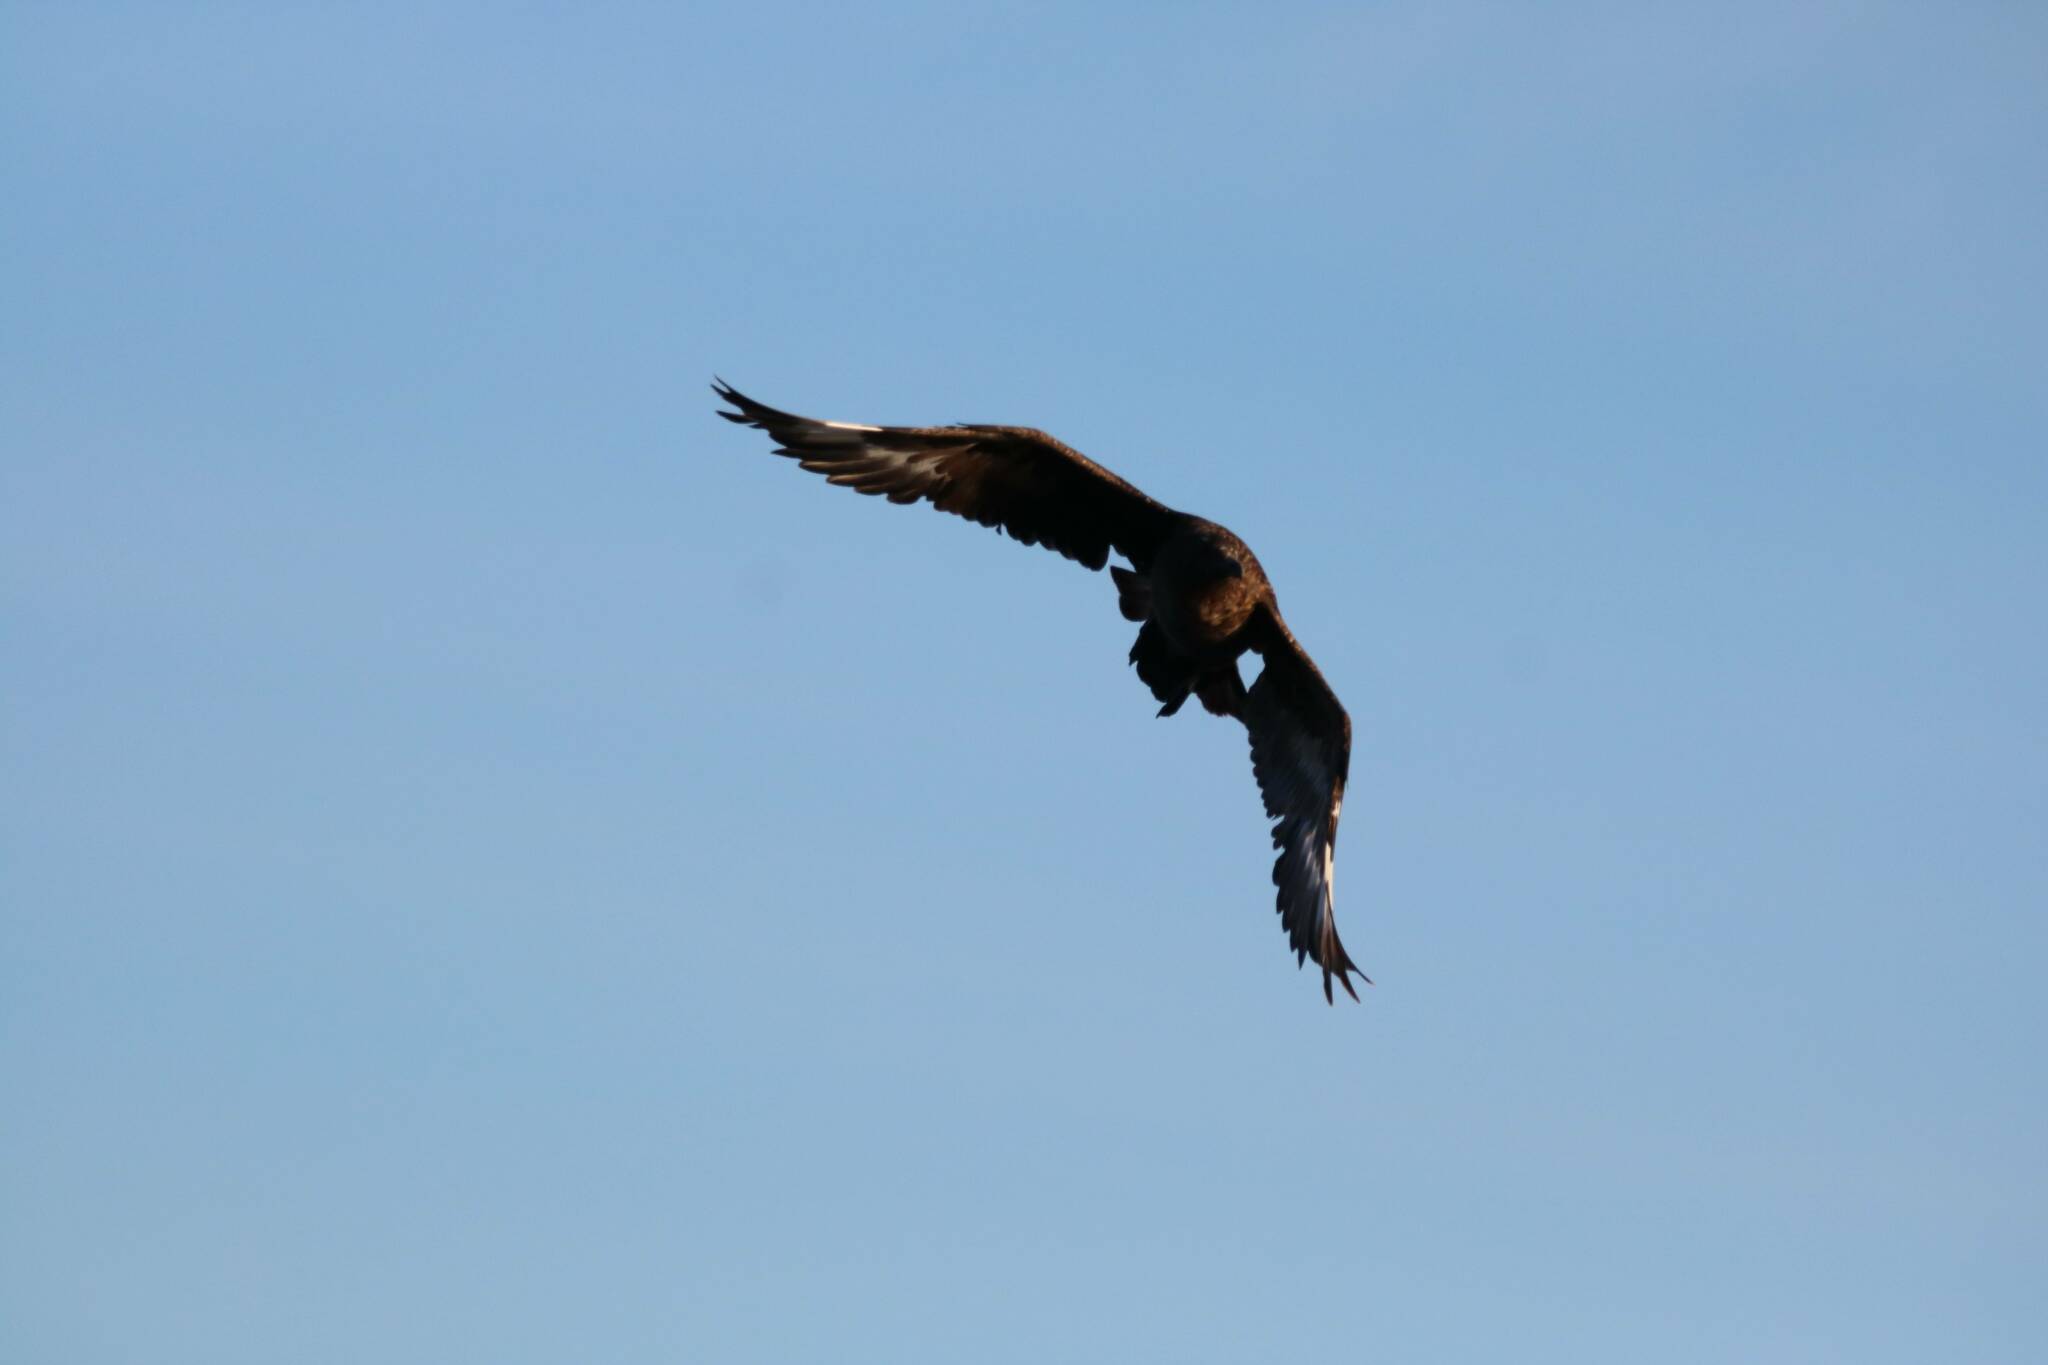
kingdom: Animalia
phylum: Chordata
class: Aves
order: Charadriiformes
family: Stercorariidae
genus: Stercorarius
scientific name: Stercorarius skua
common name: Great skua
